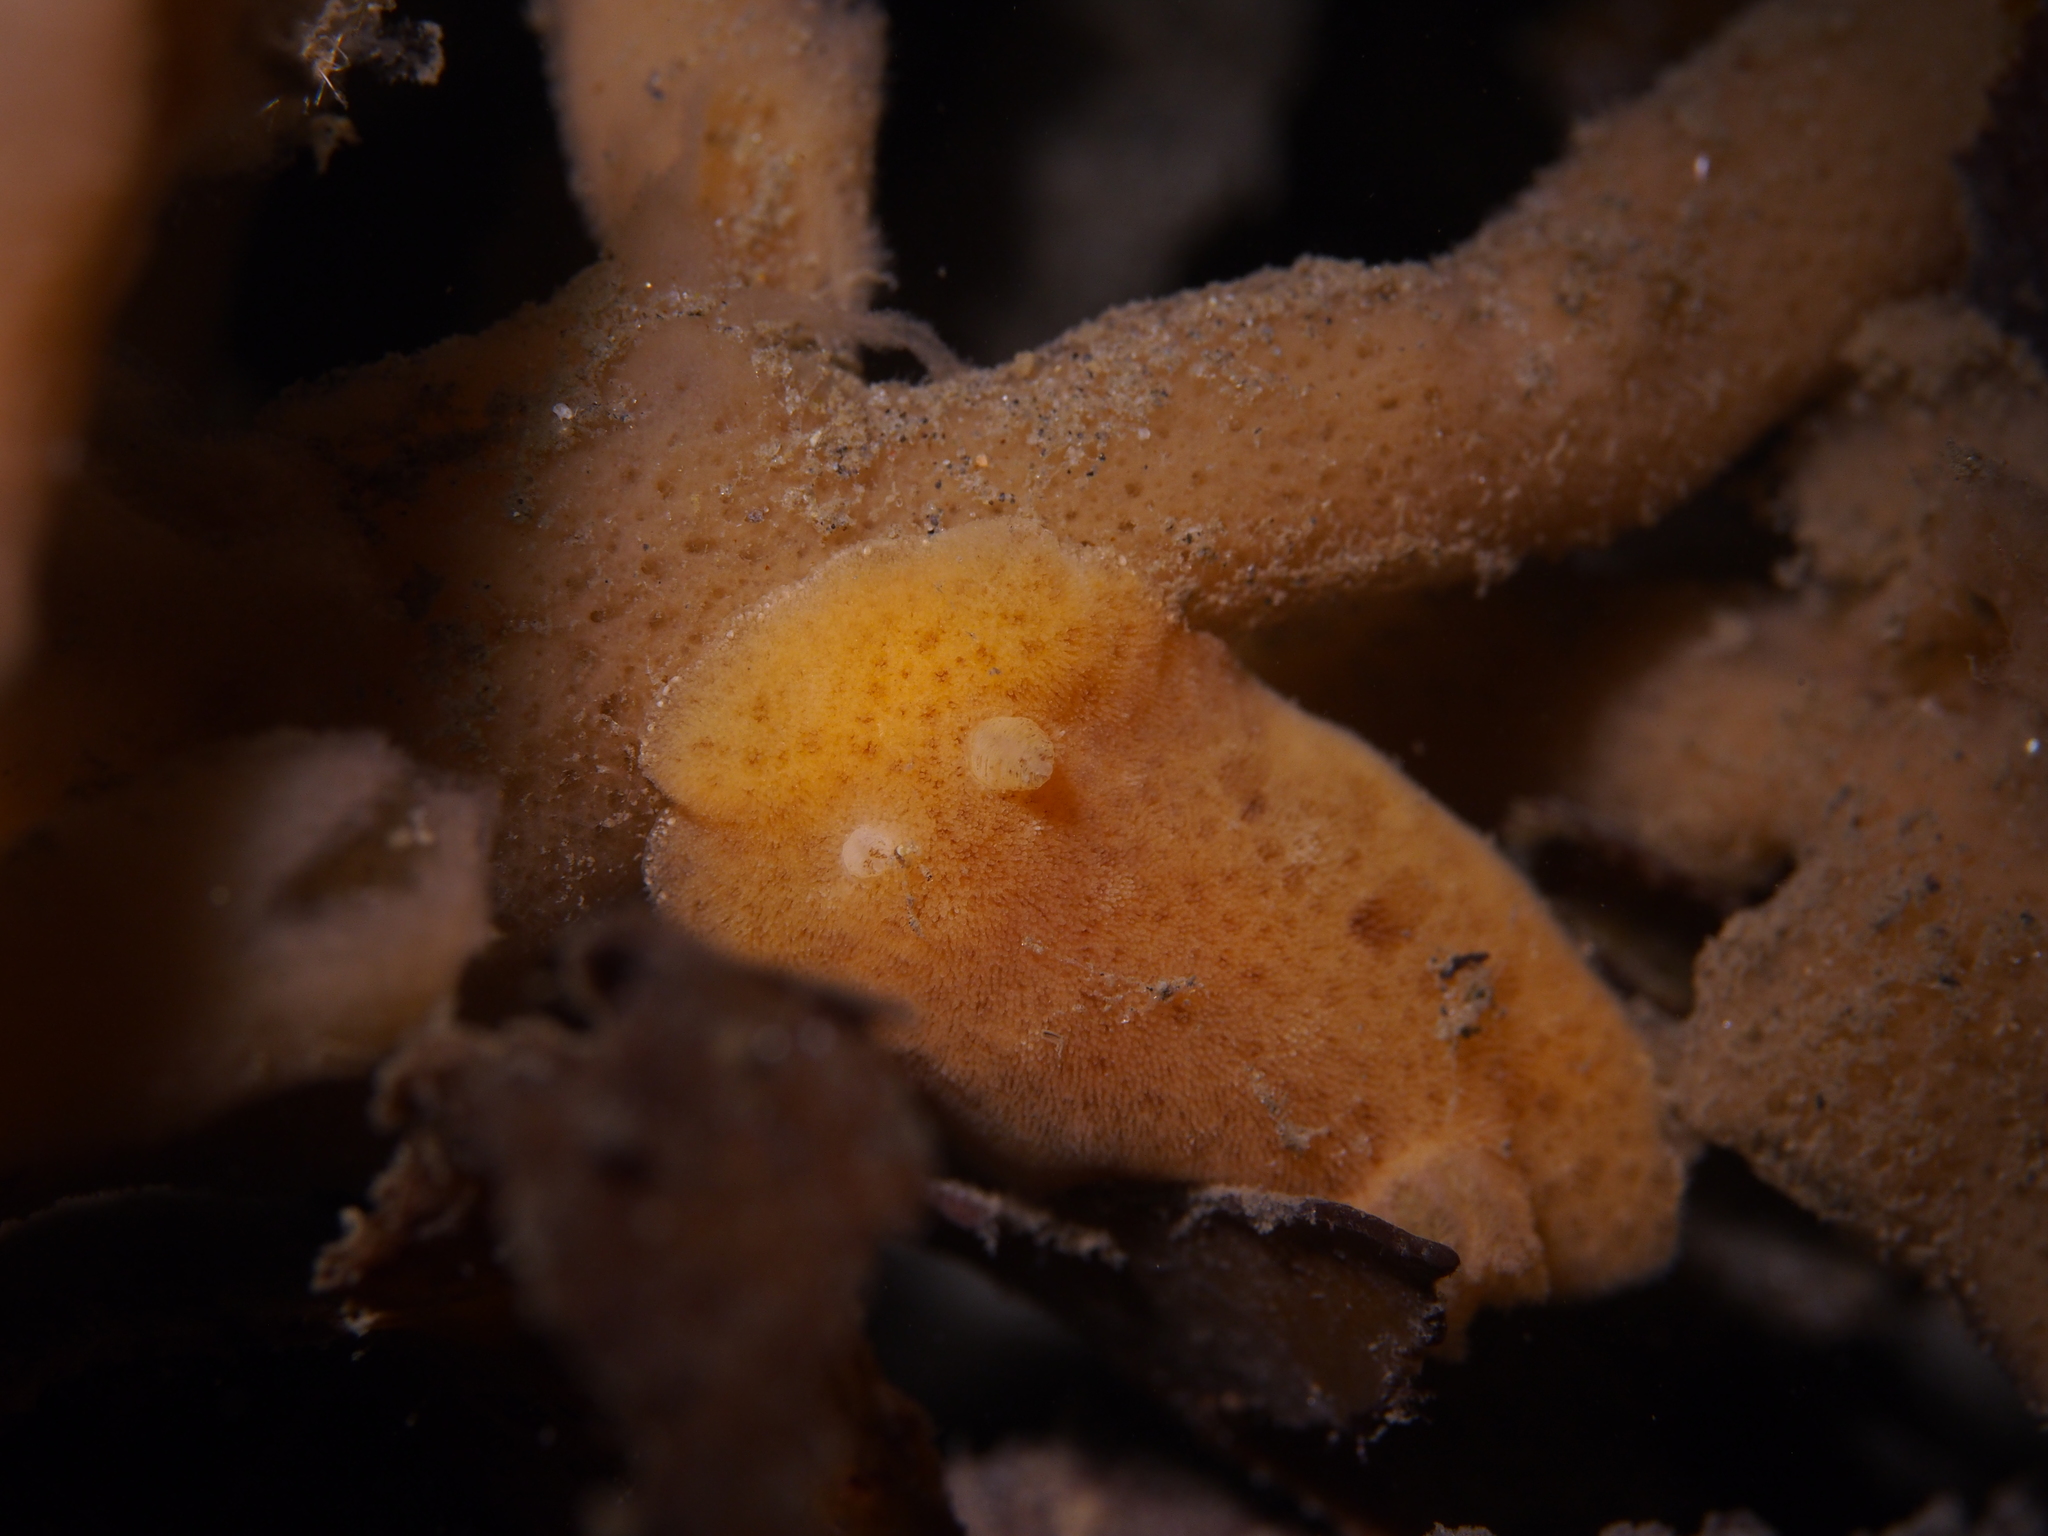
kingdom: Animalia
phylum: Mollusca
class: Gastropoda
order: Nudibranchia
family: Discodorididae
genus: Jorunna
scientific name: Jorunna tomentosa
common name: Grey sea slug
